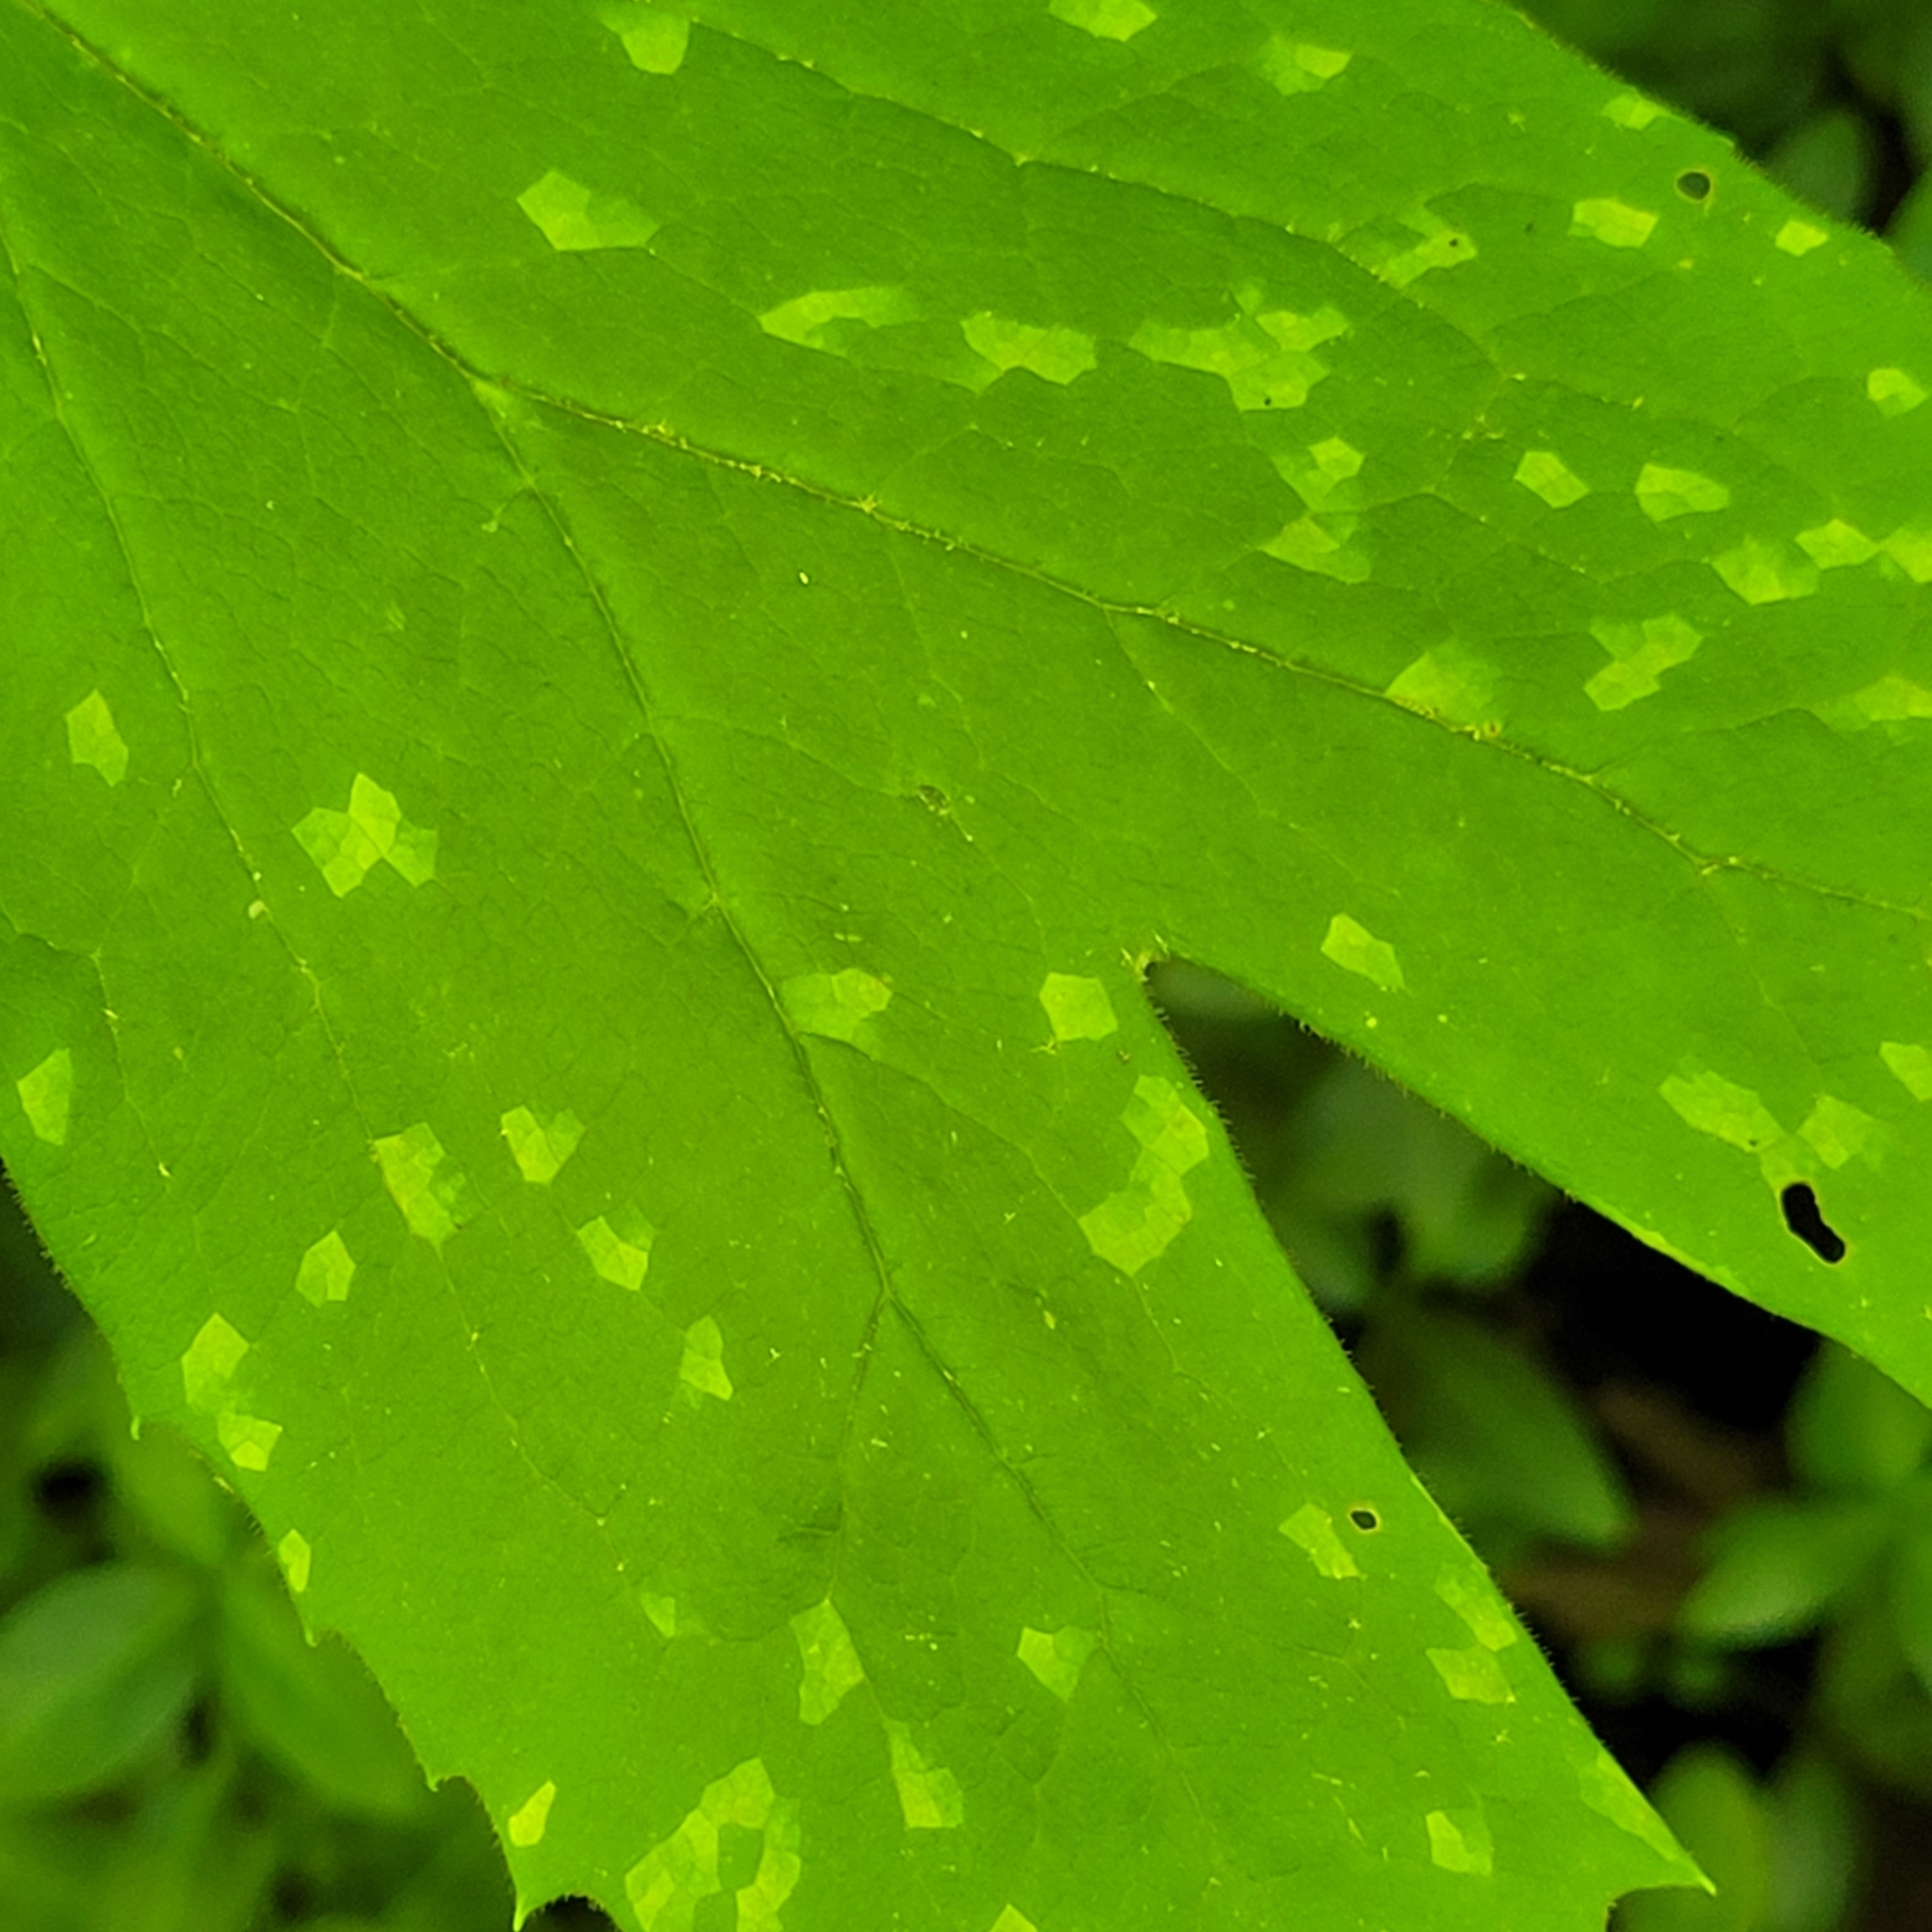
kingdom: Fungi
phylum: Basidiomycota
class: Pucciniomycetes
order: Pucciniales
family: Pucciniaceae
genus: Puccinia
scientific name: Puccinia podophylli
